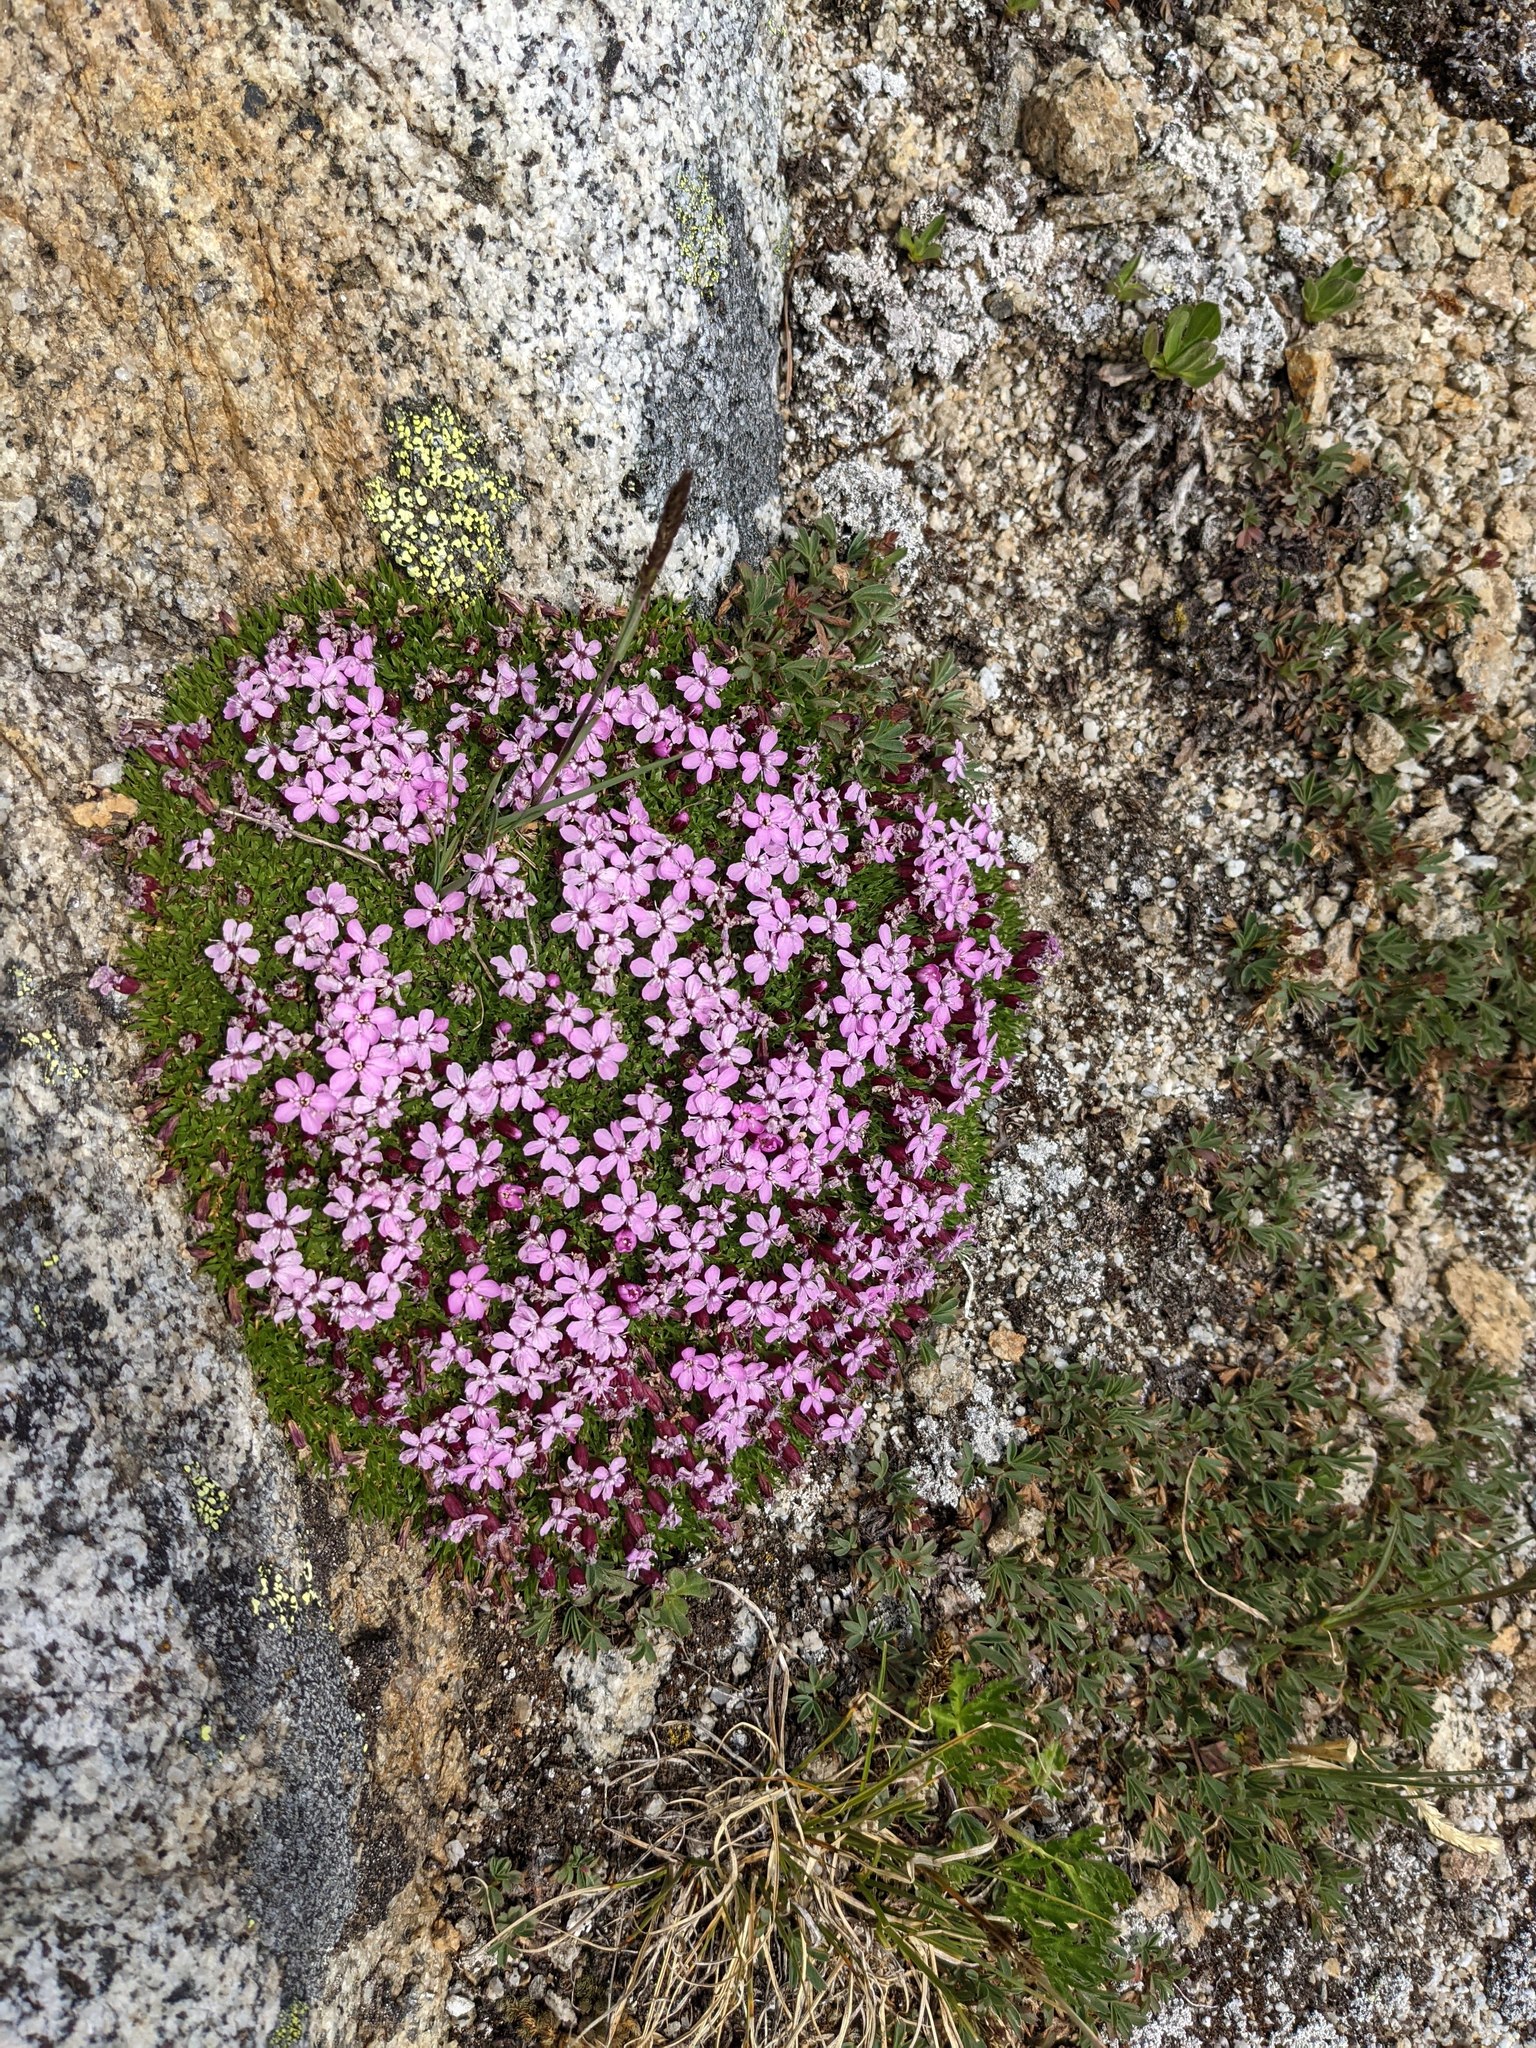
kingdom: Plantae
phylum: Tracheophyta
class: Magnoliopsida
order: Caryophyllales
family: Caryophyllaceae
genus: Silene
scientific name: Silene acaulis
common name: Moss campion
